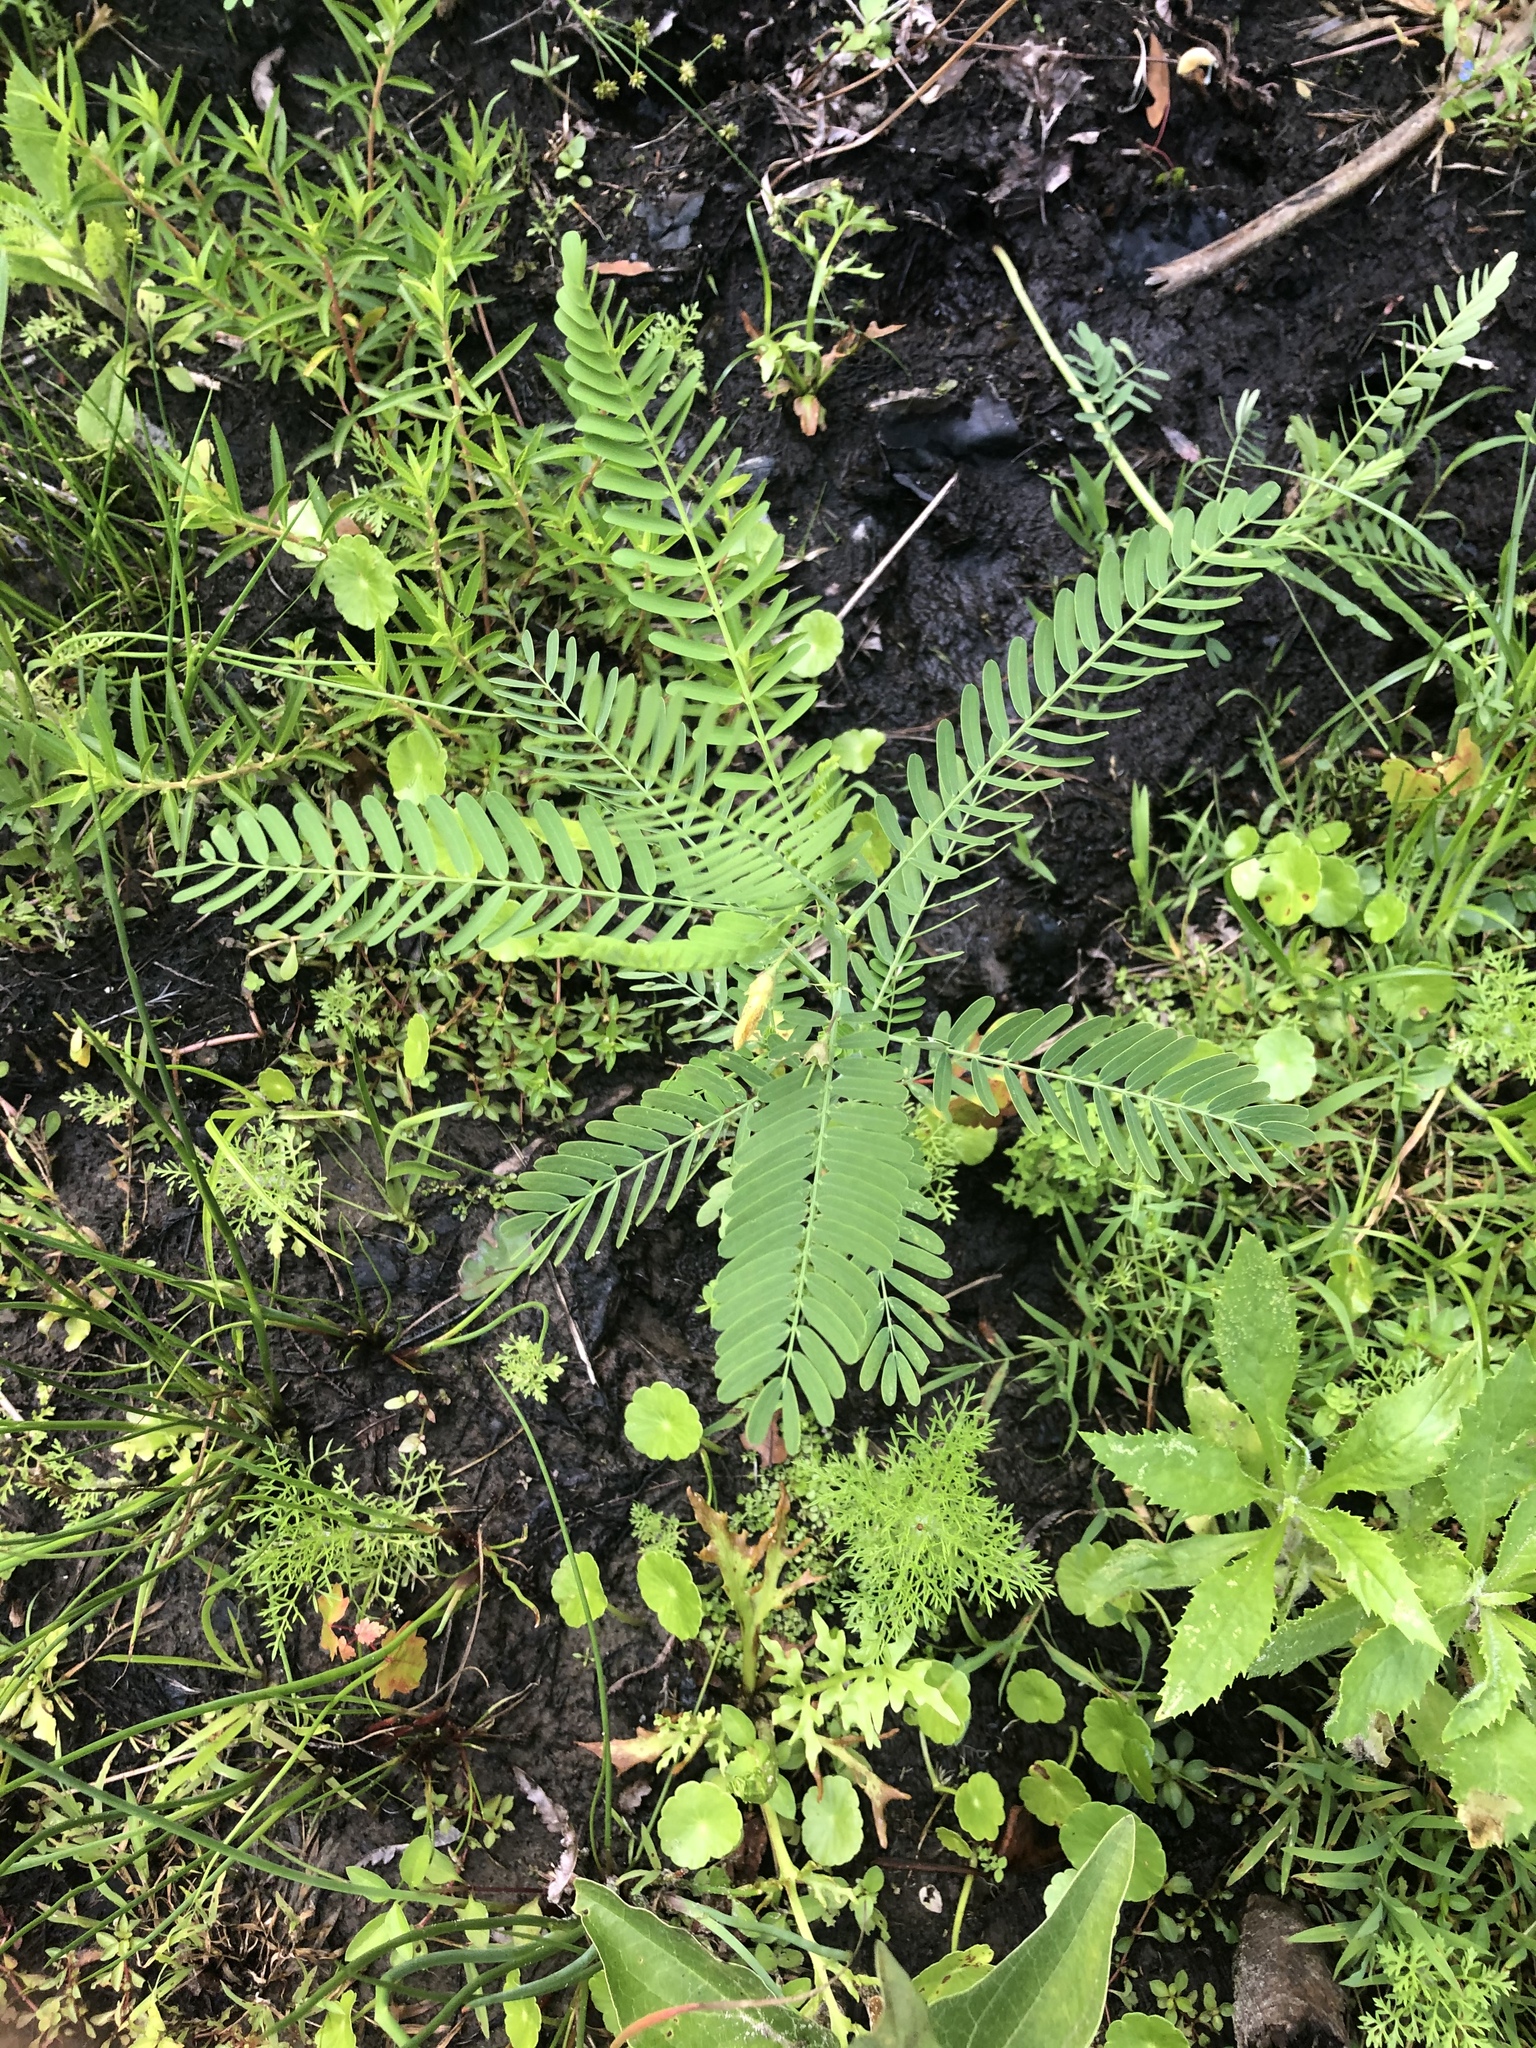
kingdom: Plantae
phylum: Tracheophyta
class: Magnoliopsida
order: Fabales
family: Fabaceae
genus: Sesbania
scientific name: Sesbania herbacea
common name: Bigpod sesbania
